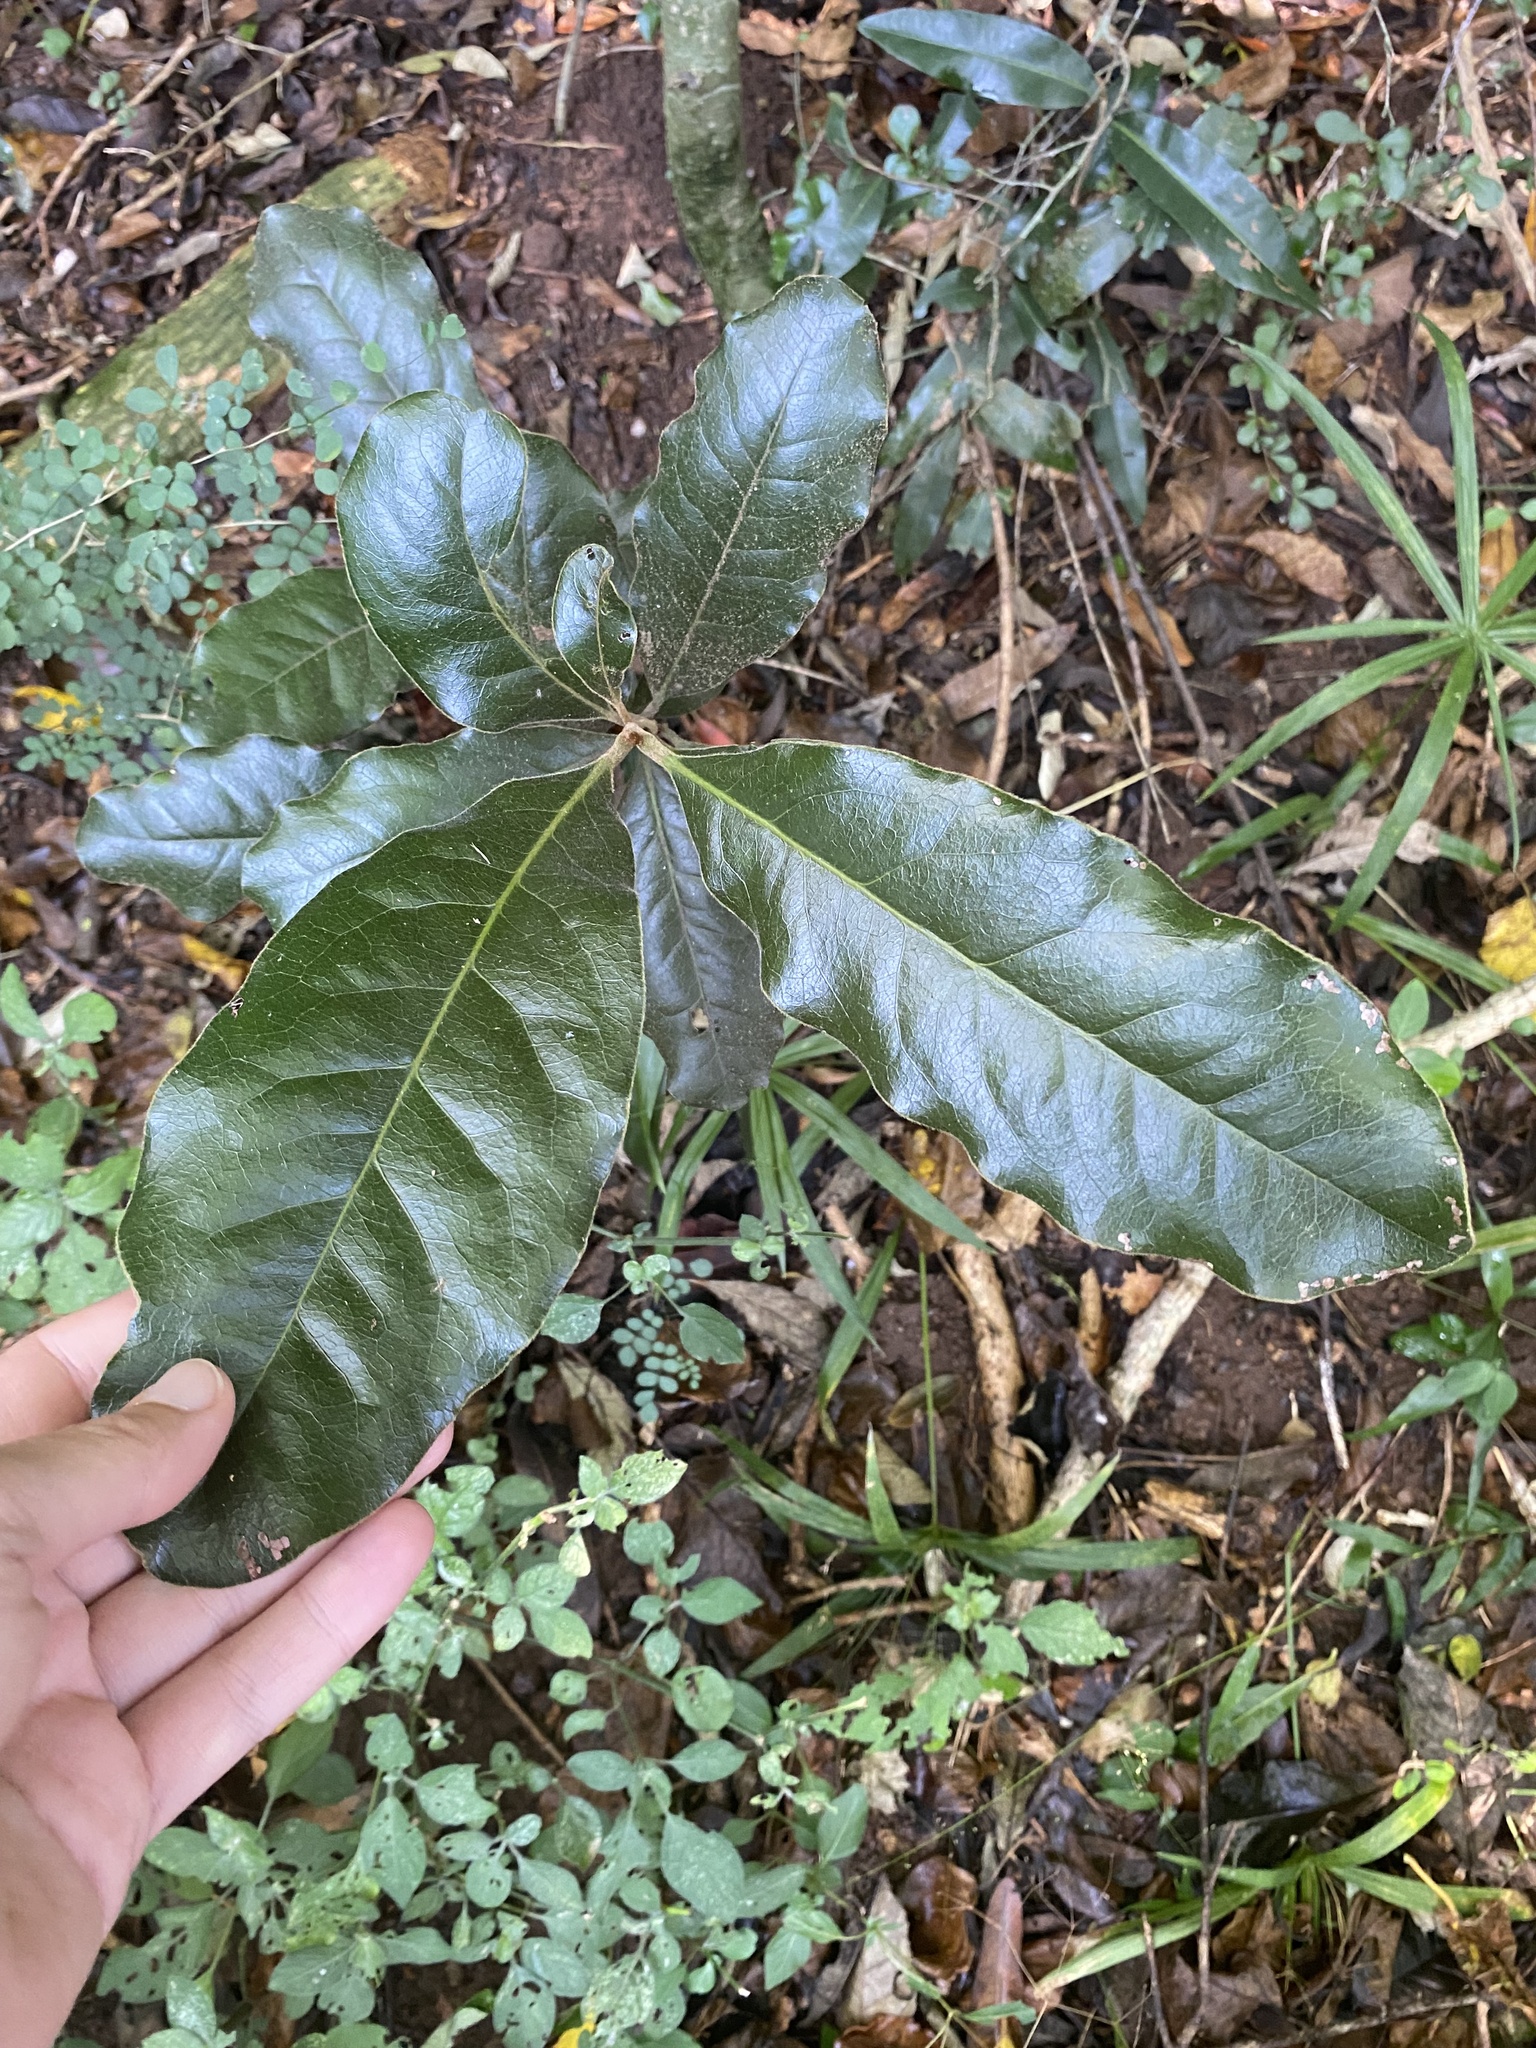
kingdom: Plantae
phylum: Tracheophyta
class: Magnoliopsida
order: Ericales
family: Ebenaceae
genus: Euclea
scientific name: Euclea natalensis
